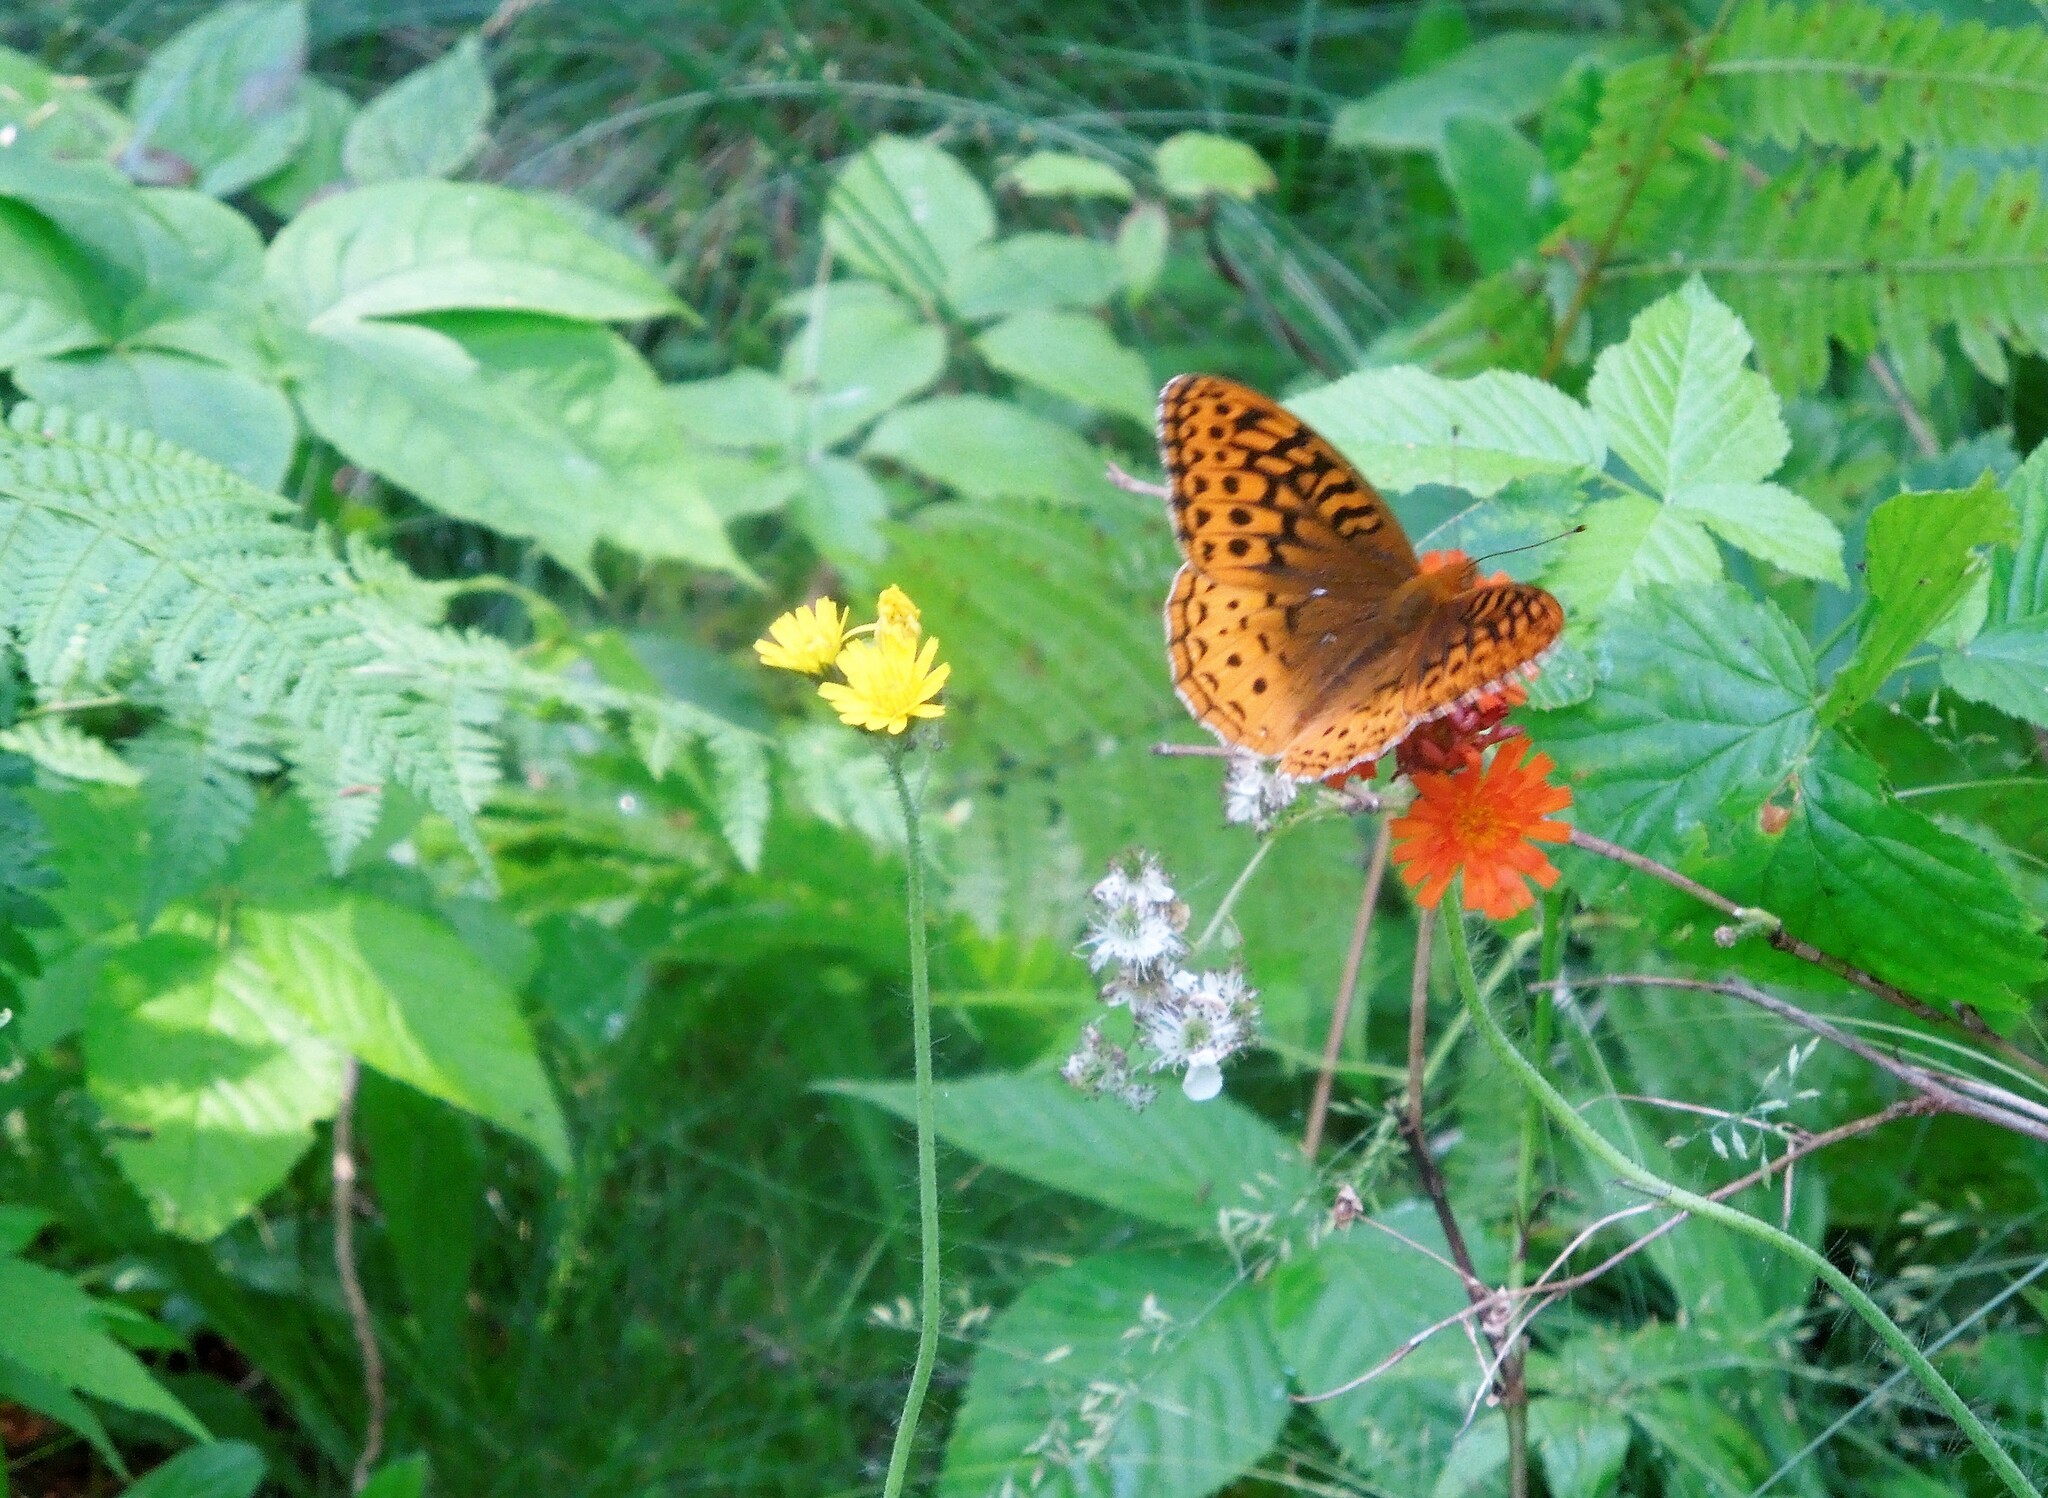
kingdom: Animalia
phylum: Arthropoda
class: Insecta
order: Lepidoptera
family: Nymphalidae
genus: Speyeria
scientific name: Speyeria cybele
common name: Great spangled fritillary
